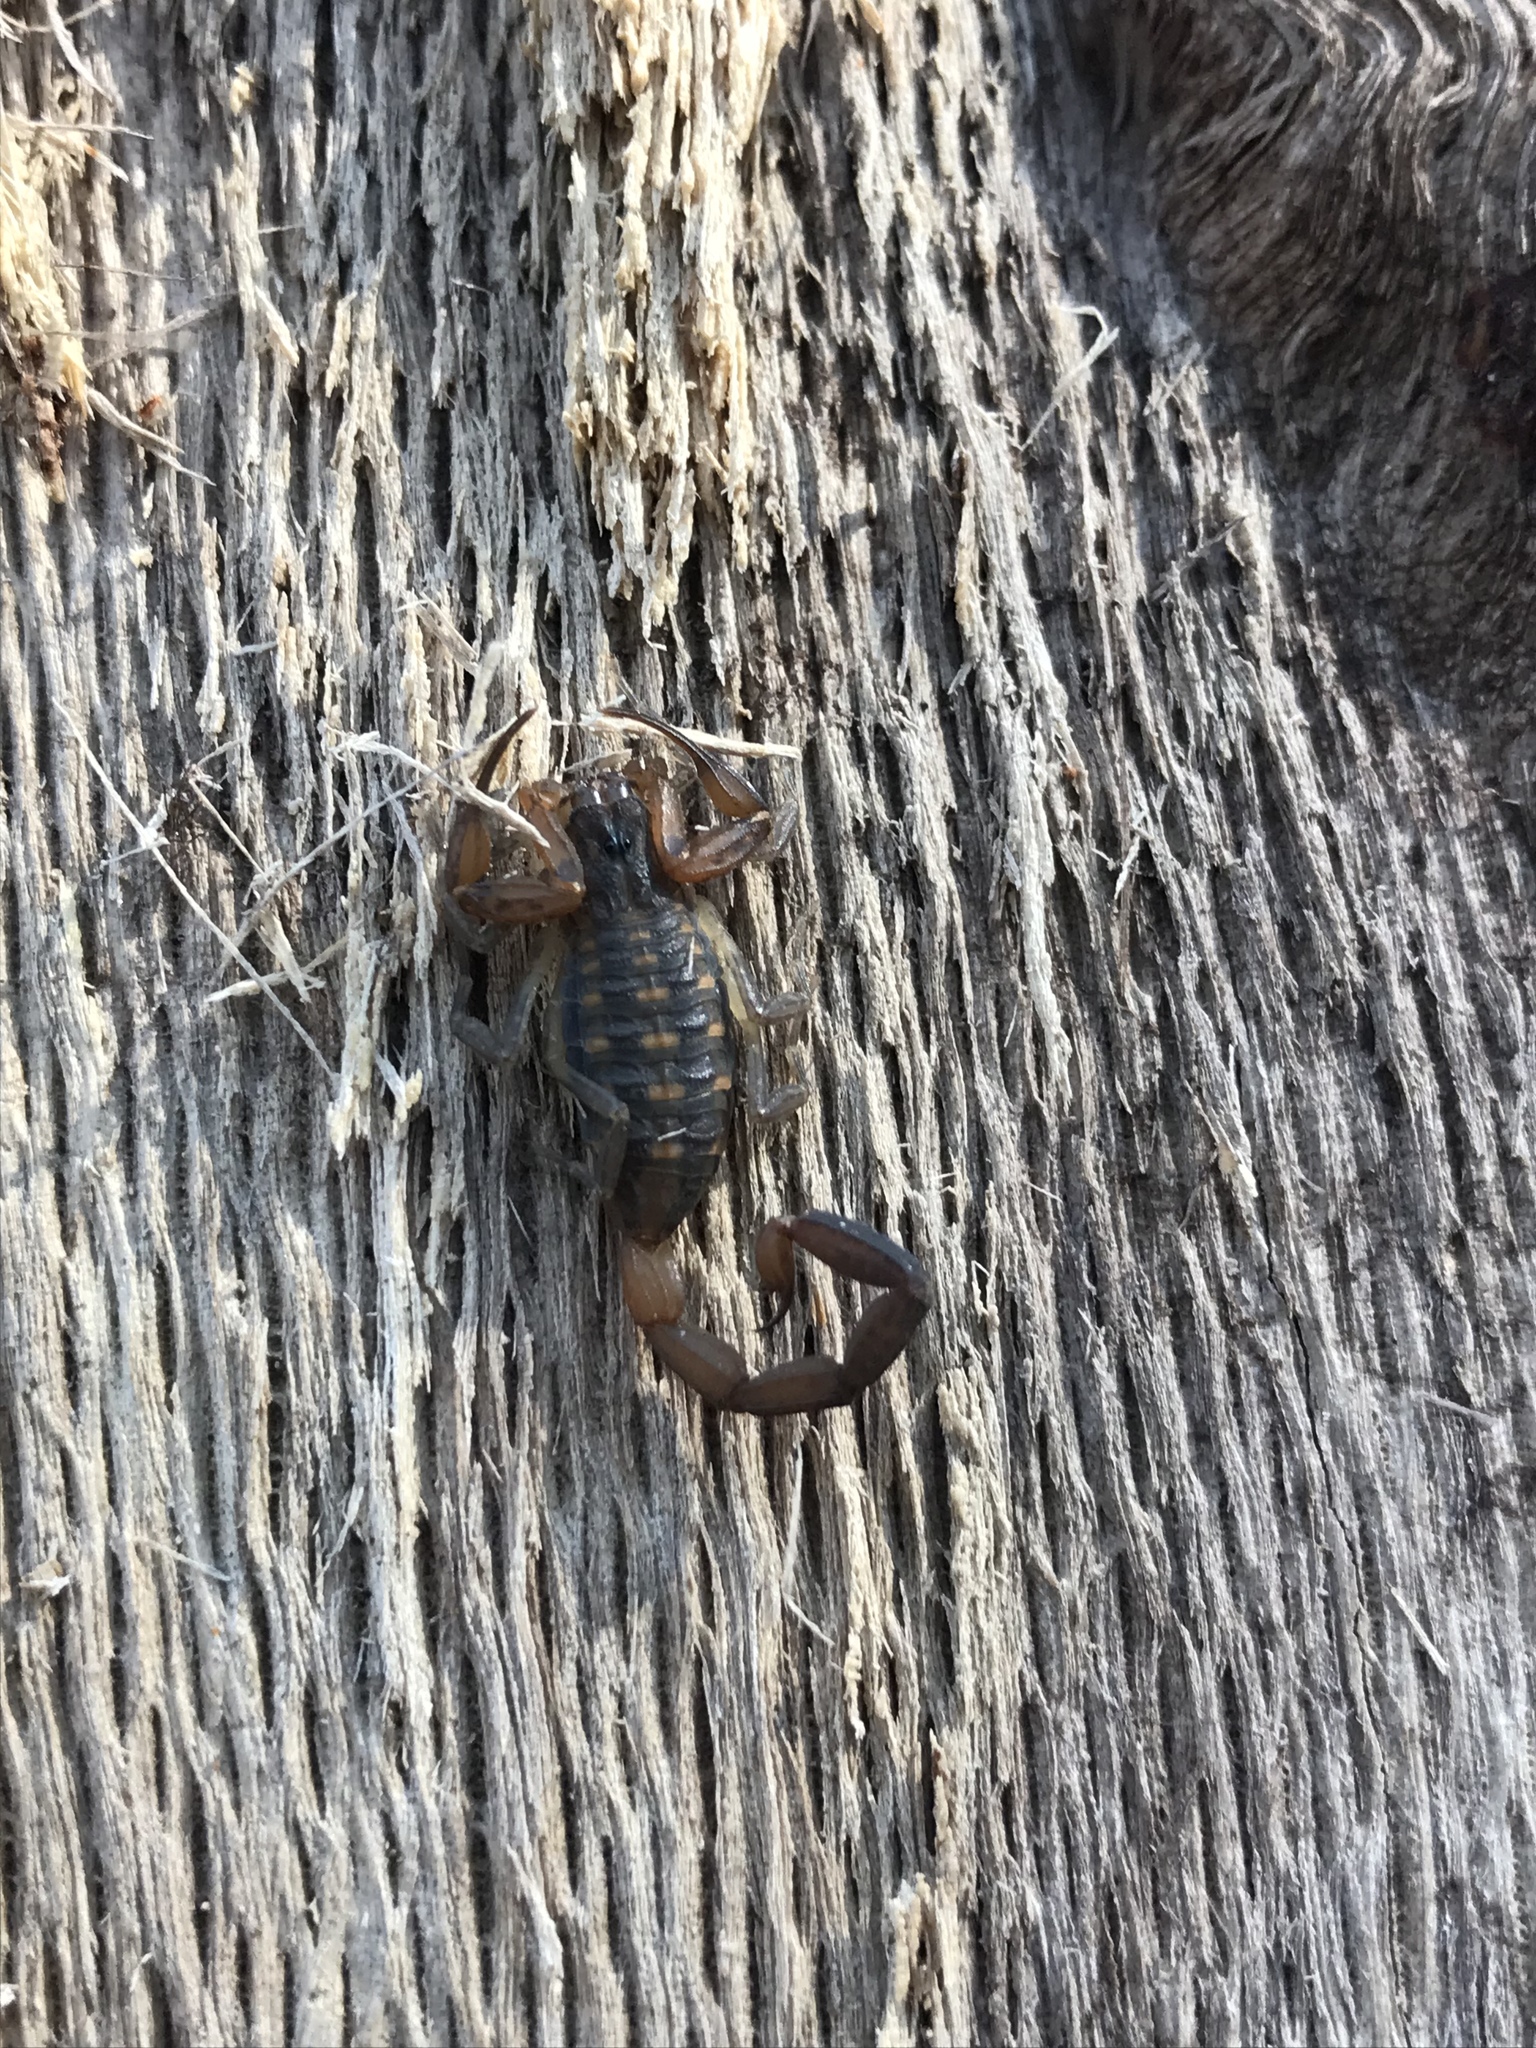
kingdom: Animalia
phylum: Arthropoda
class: Arachnida
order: Scorpiones
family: Buthidae
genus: Centruroides
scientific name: Centruroides hentzi
